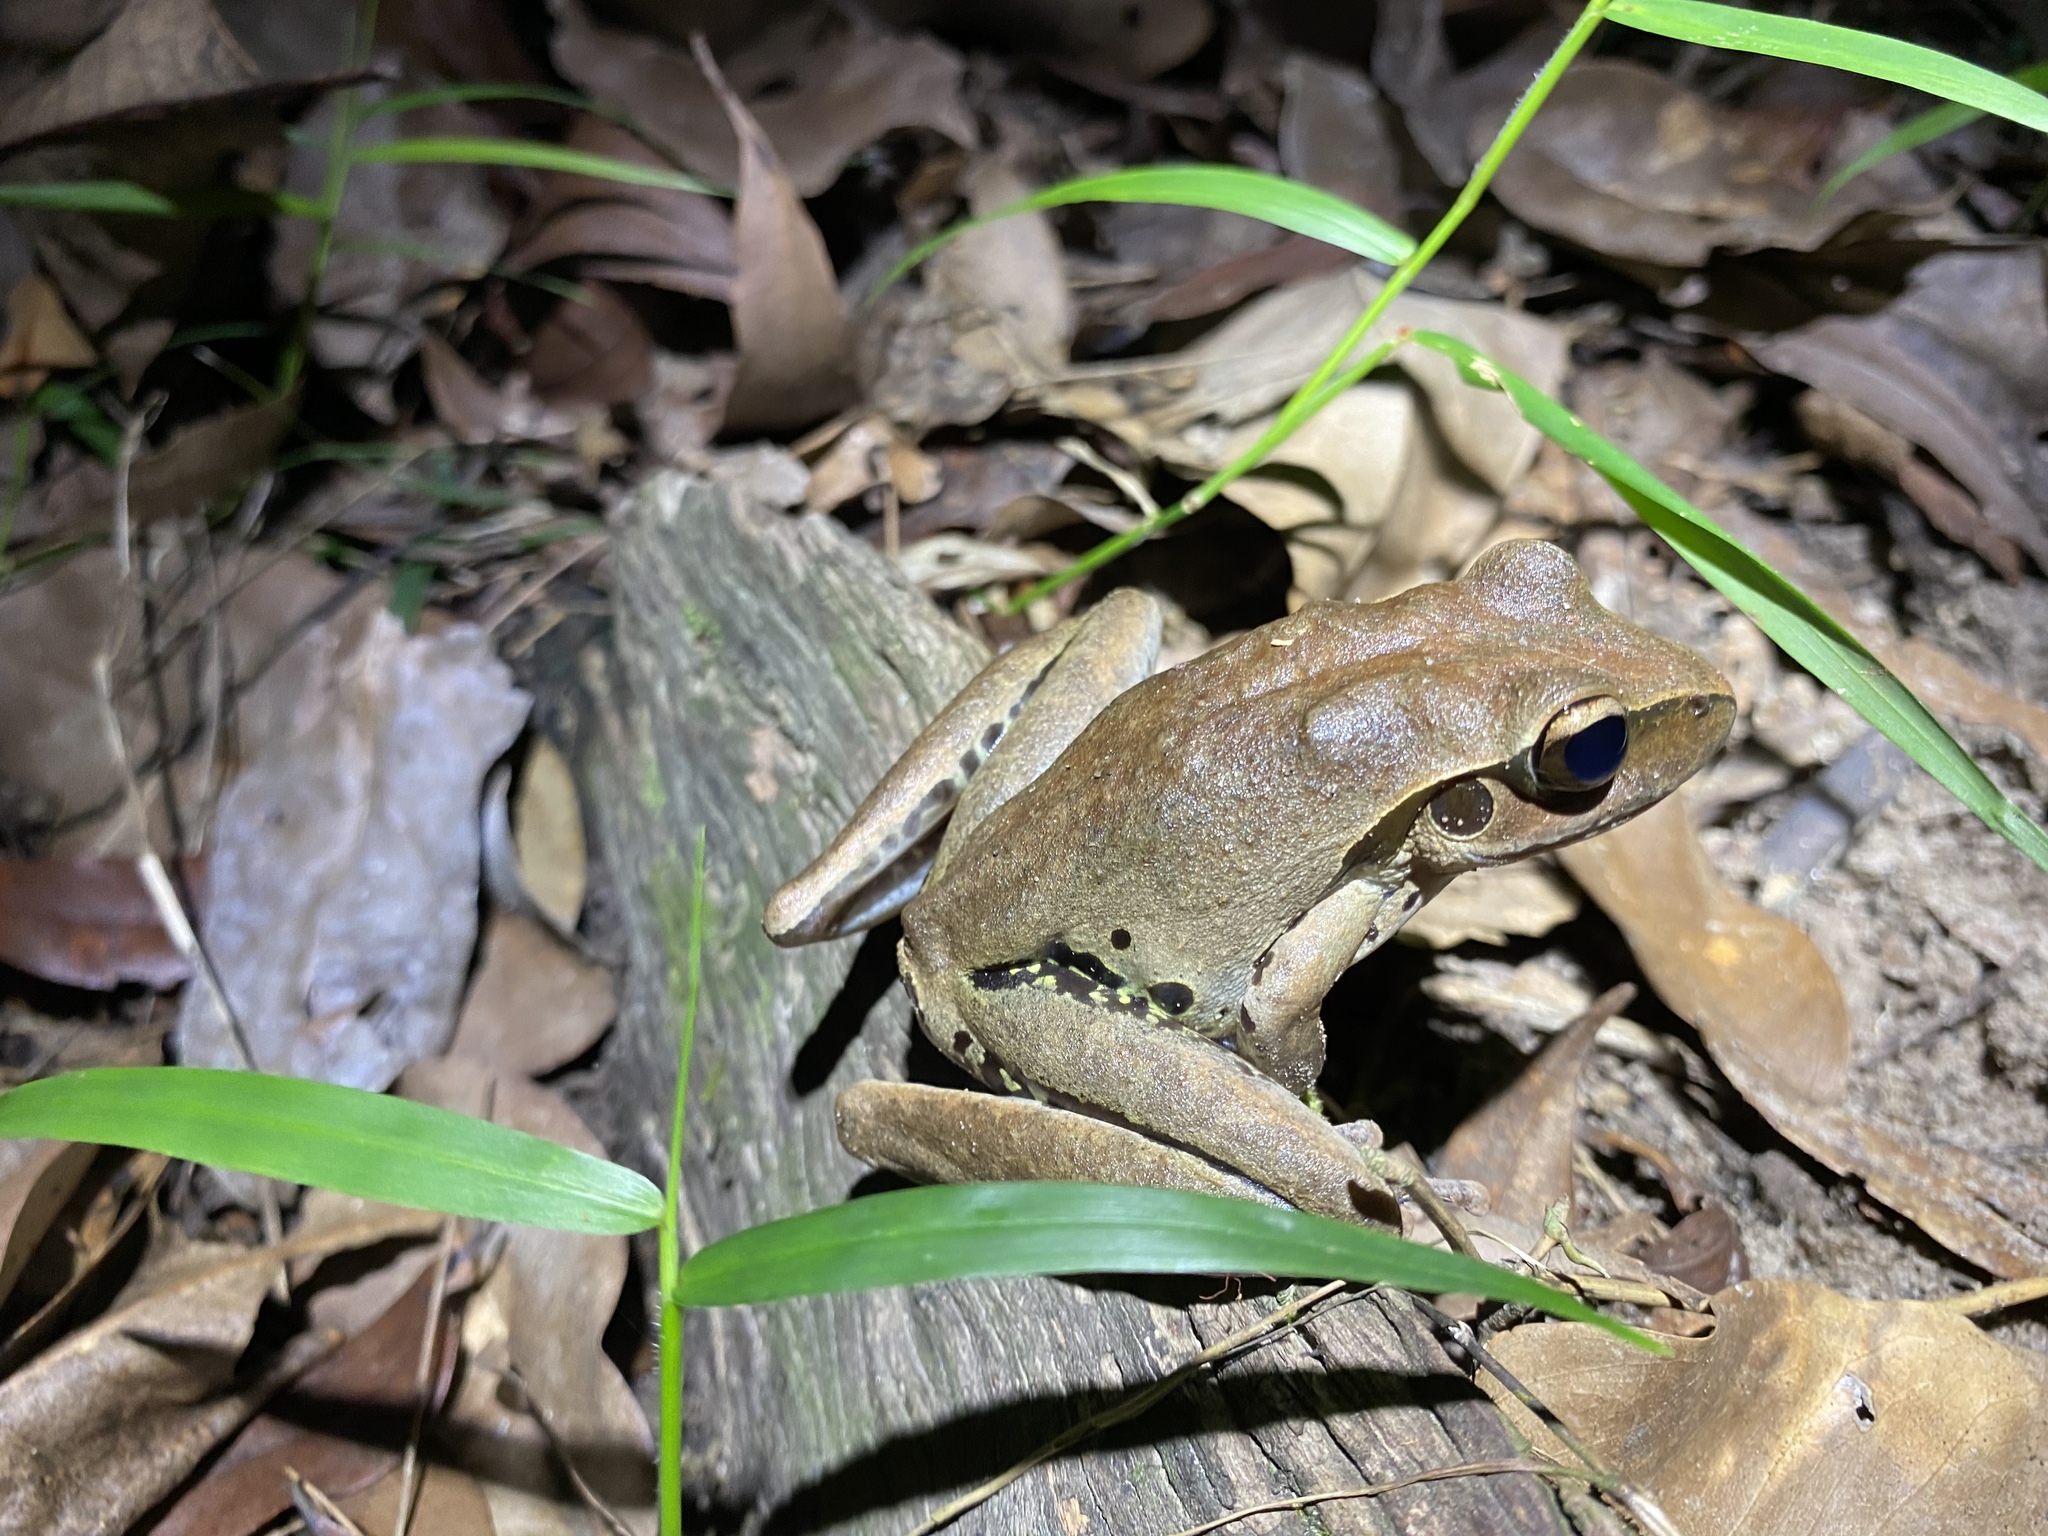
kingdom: Animalia
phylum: Chordata
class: Amphibia
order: Anura
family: Hylidae
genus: Ranoidea
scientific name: Ranoidea
